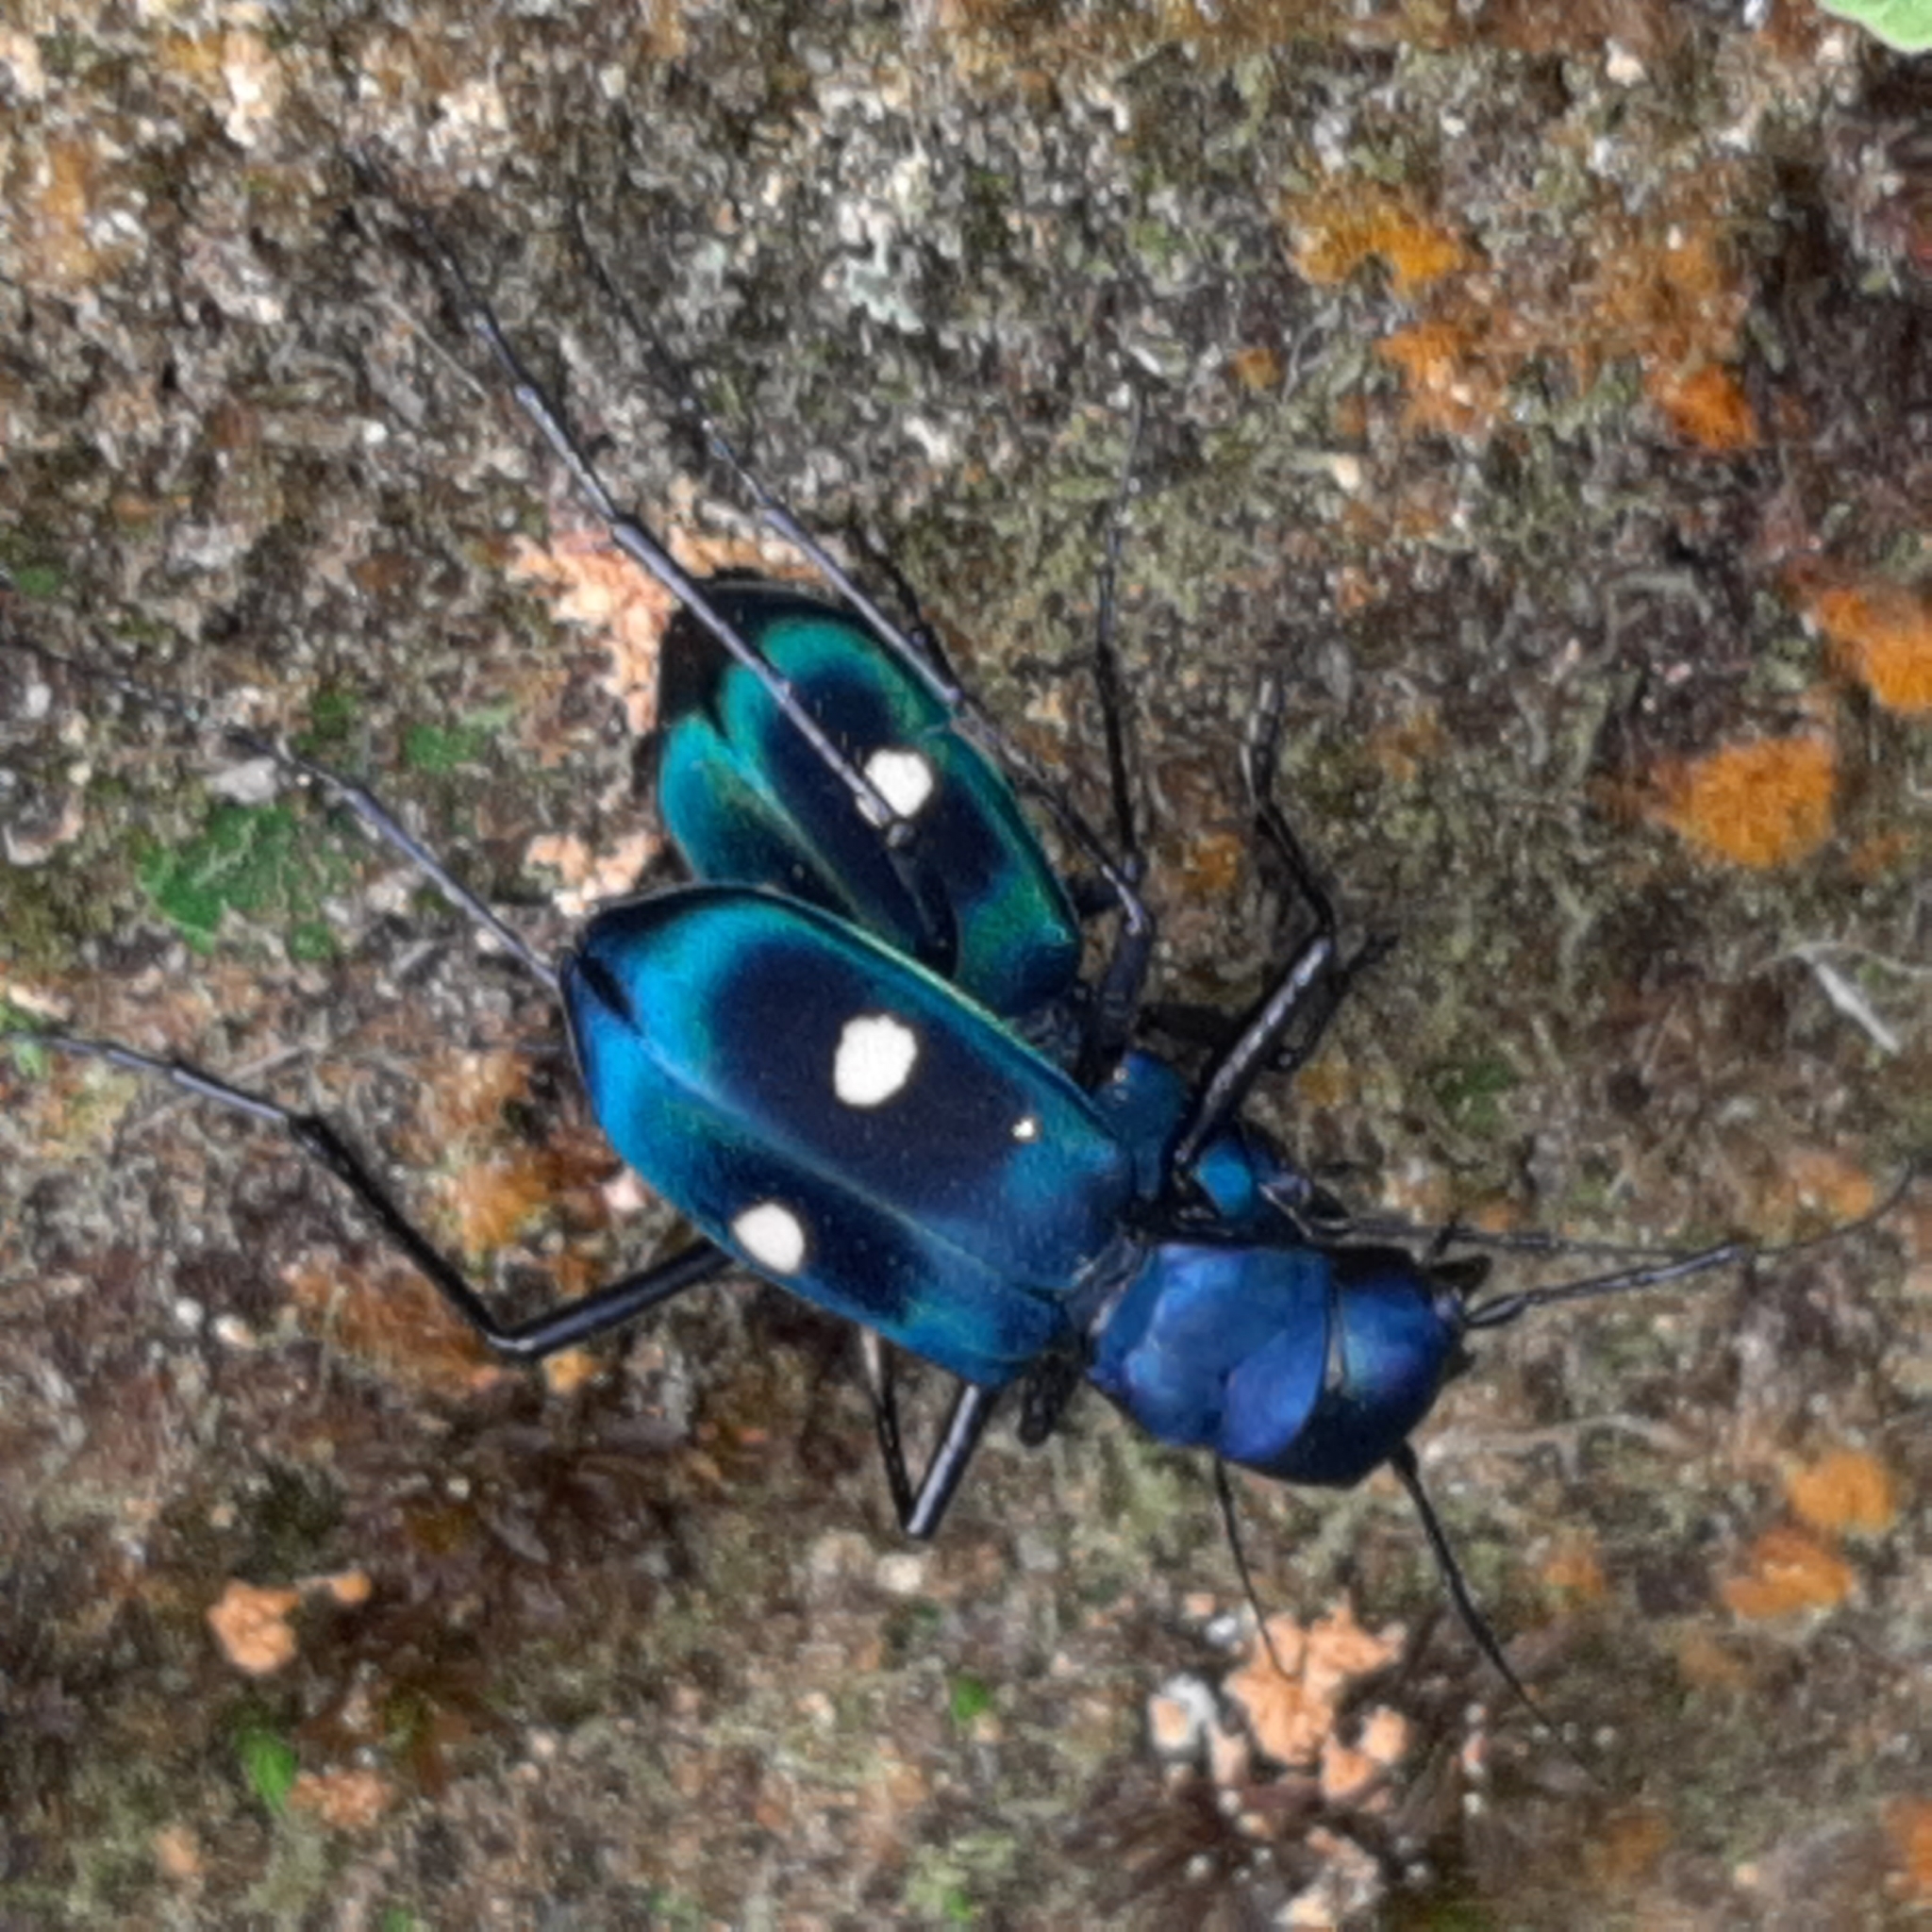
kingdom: Animalia
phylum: Arthropoda
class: Insecta
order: Coleoptera
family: Carabidae
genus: Pseudoxycheila
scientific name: Pseudoxycheila tarsalis
